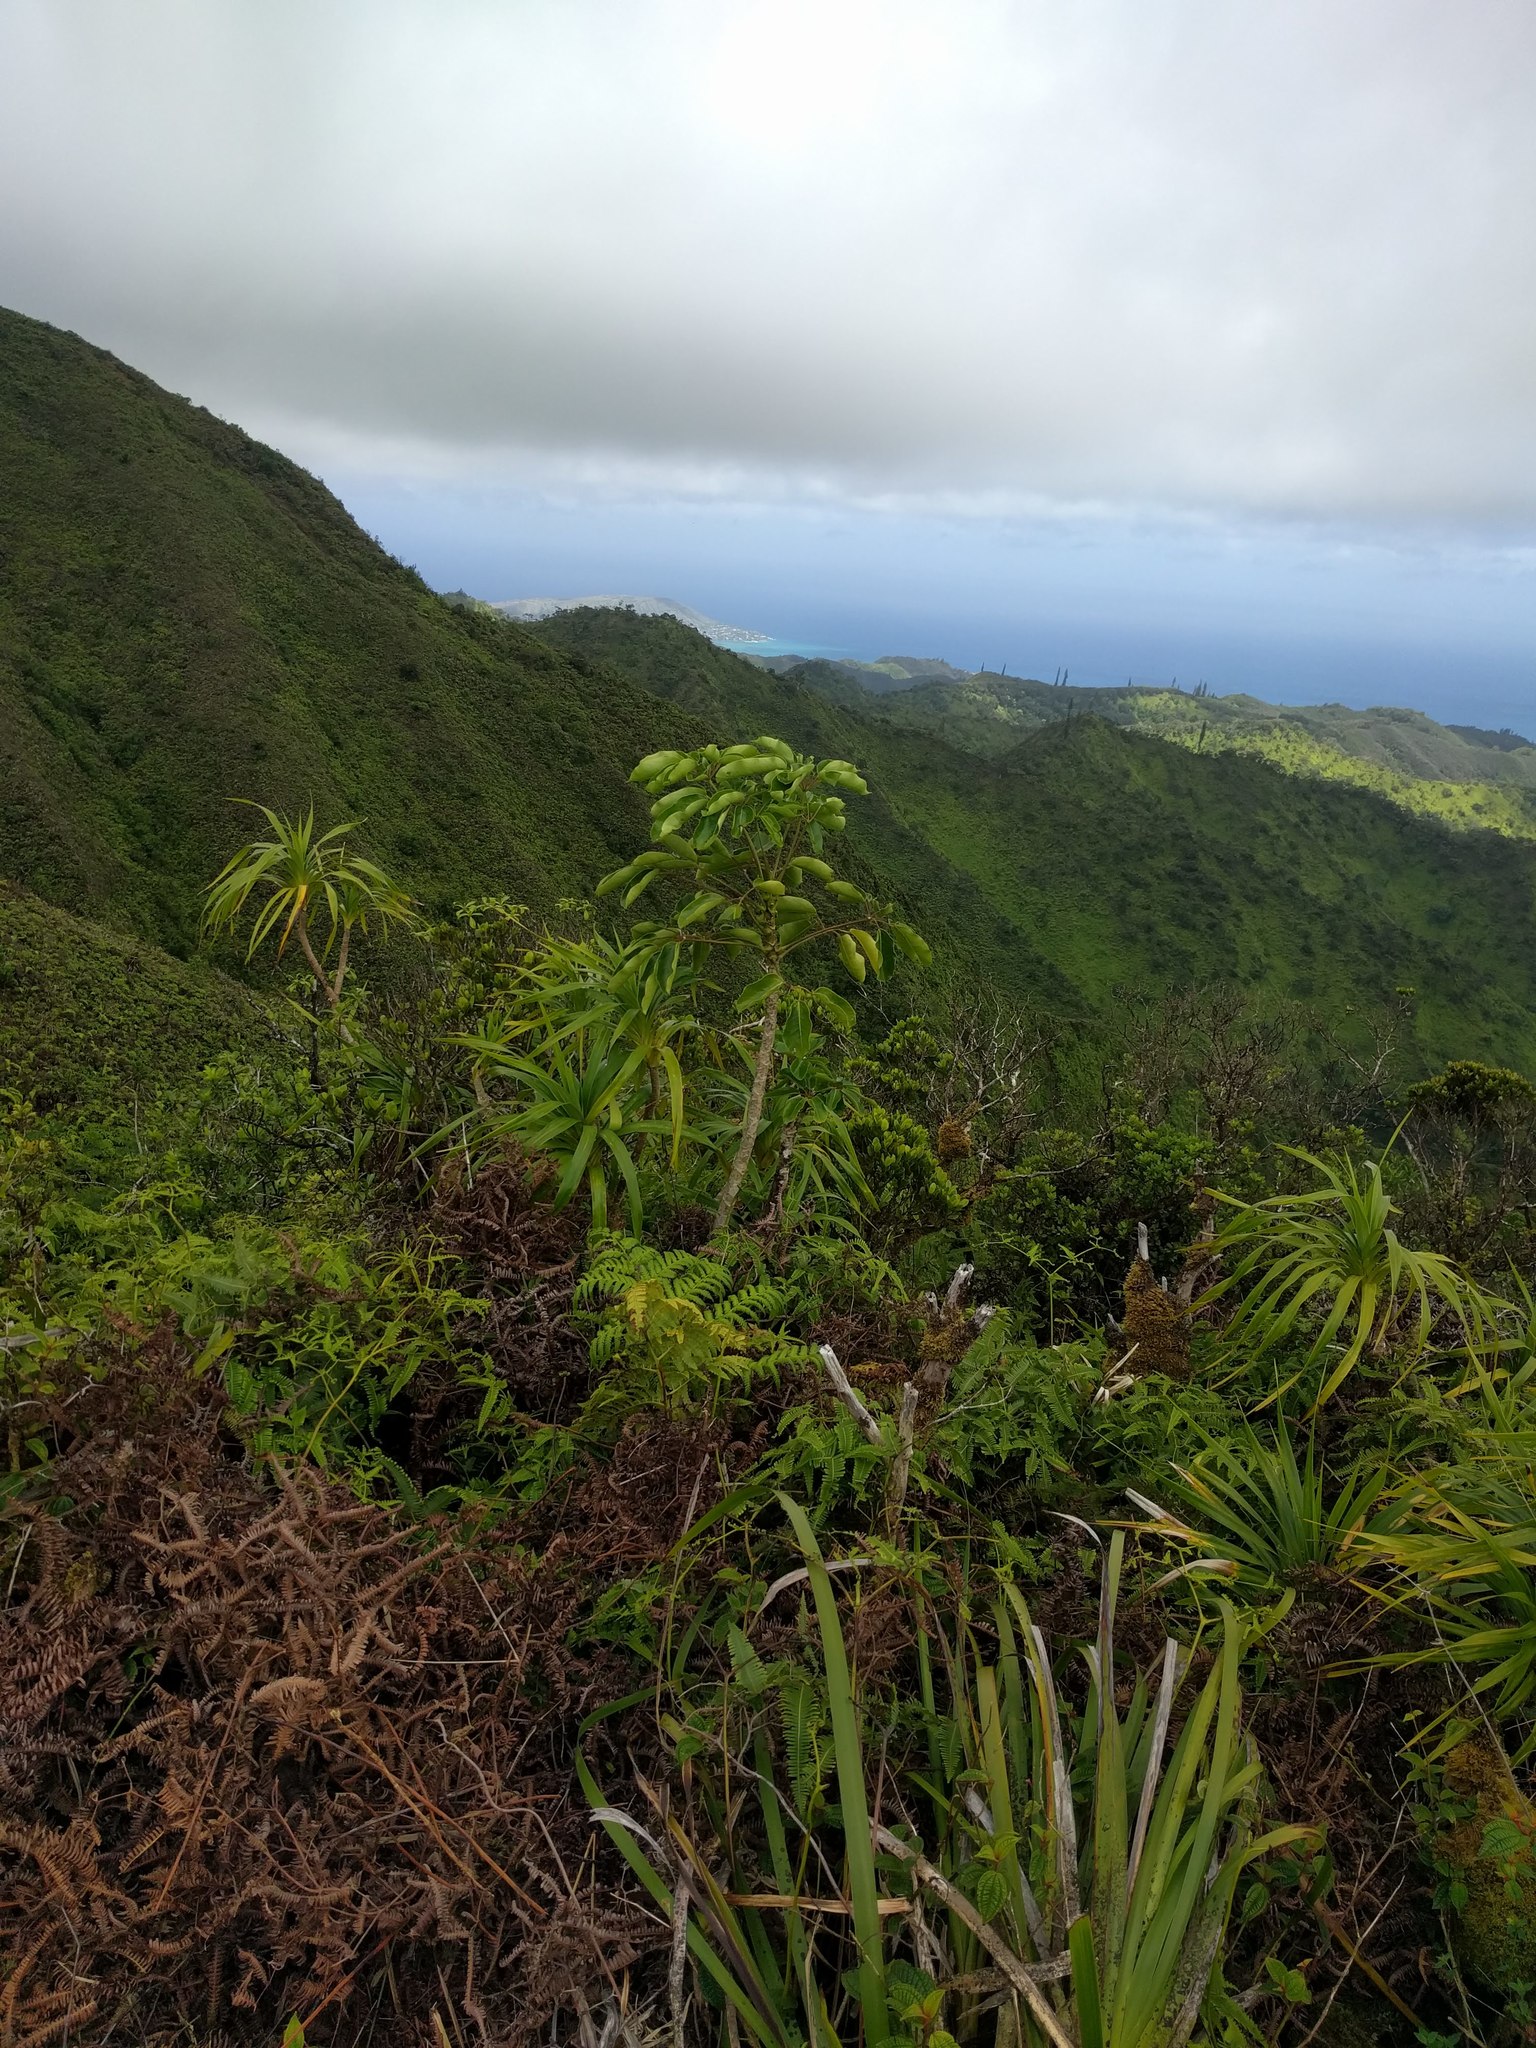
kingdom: Plantae
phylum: Tracheophyta
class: Magnoliopsida
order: Apiales
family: Araliaceae
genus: Heptapleurum
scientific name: Heptapleurum actinophyllum
